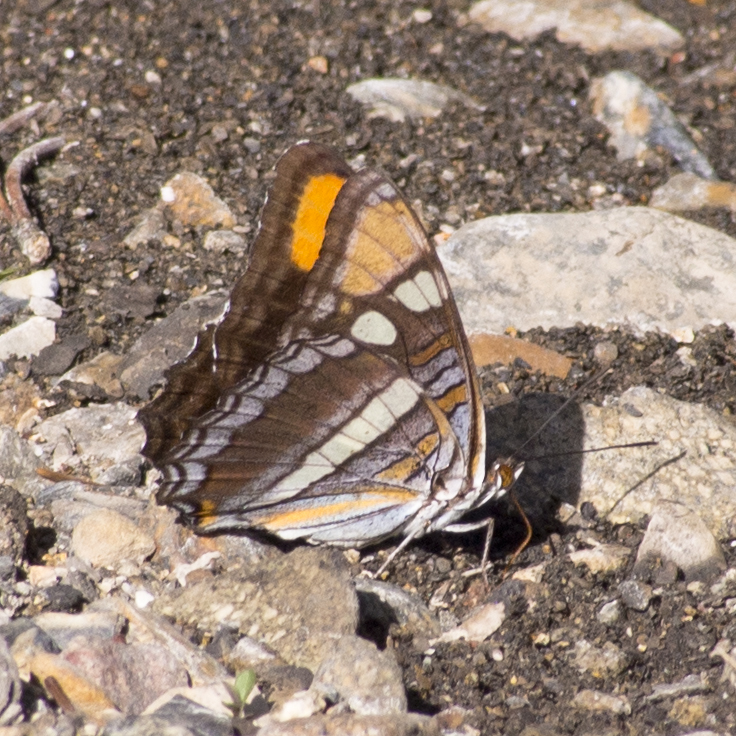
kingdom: Animalia
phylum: Arthropoda
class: Insecta
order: Lepidoptera
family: Nymphalidae
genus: Limenitis
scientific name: Limenitis bredowii
